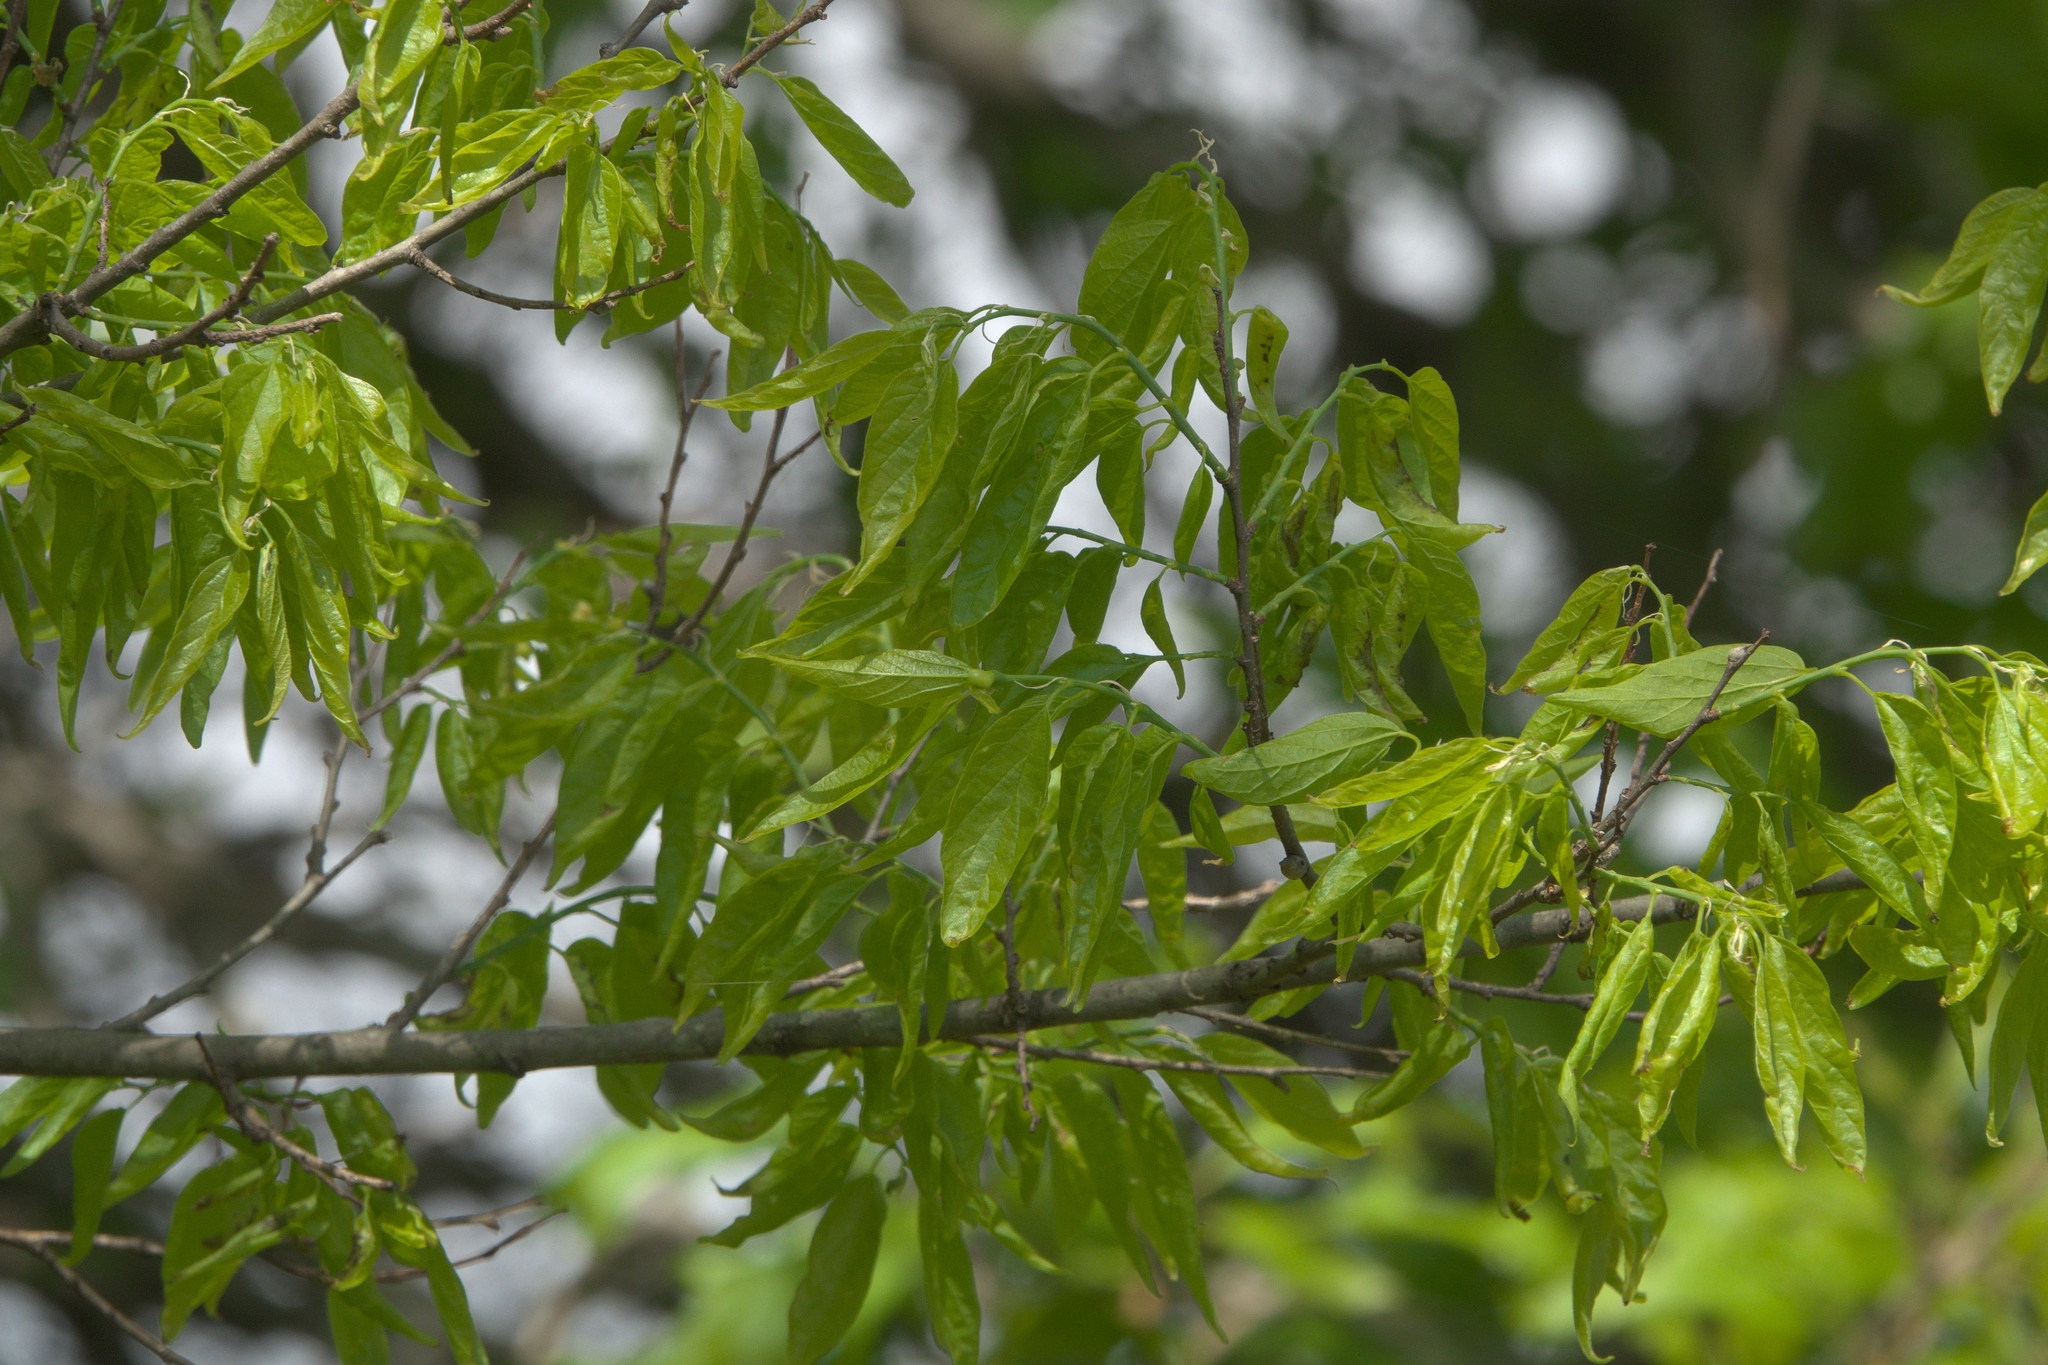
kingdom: Plantae
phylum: Tracheophyta
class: Magnoliopsida
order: Rosales
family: Cannabaceae
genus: Celtis
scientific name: Celtis occidentalis
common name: Common hackberry
